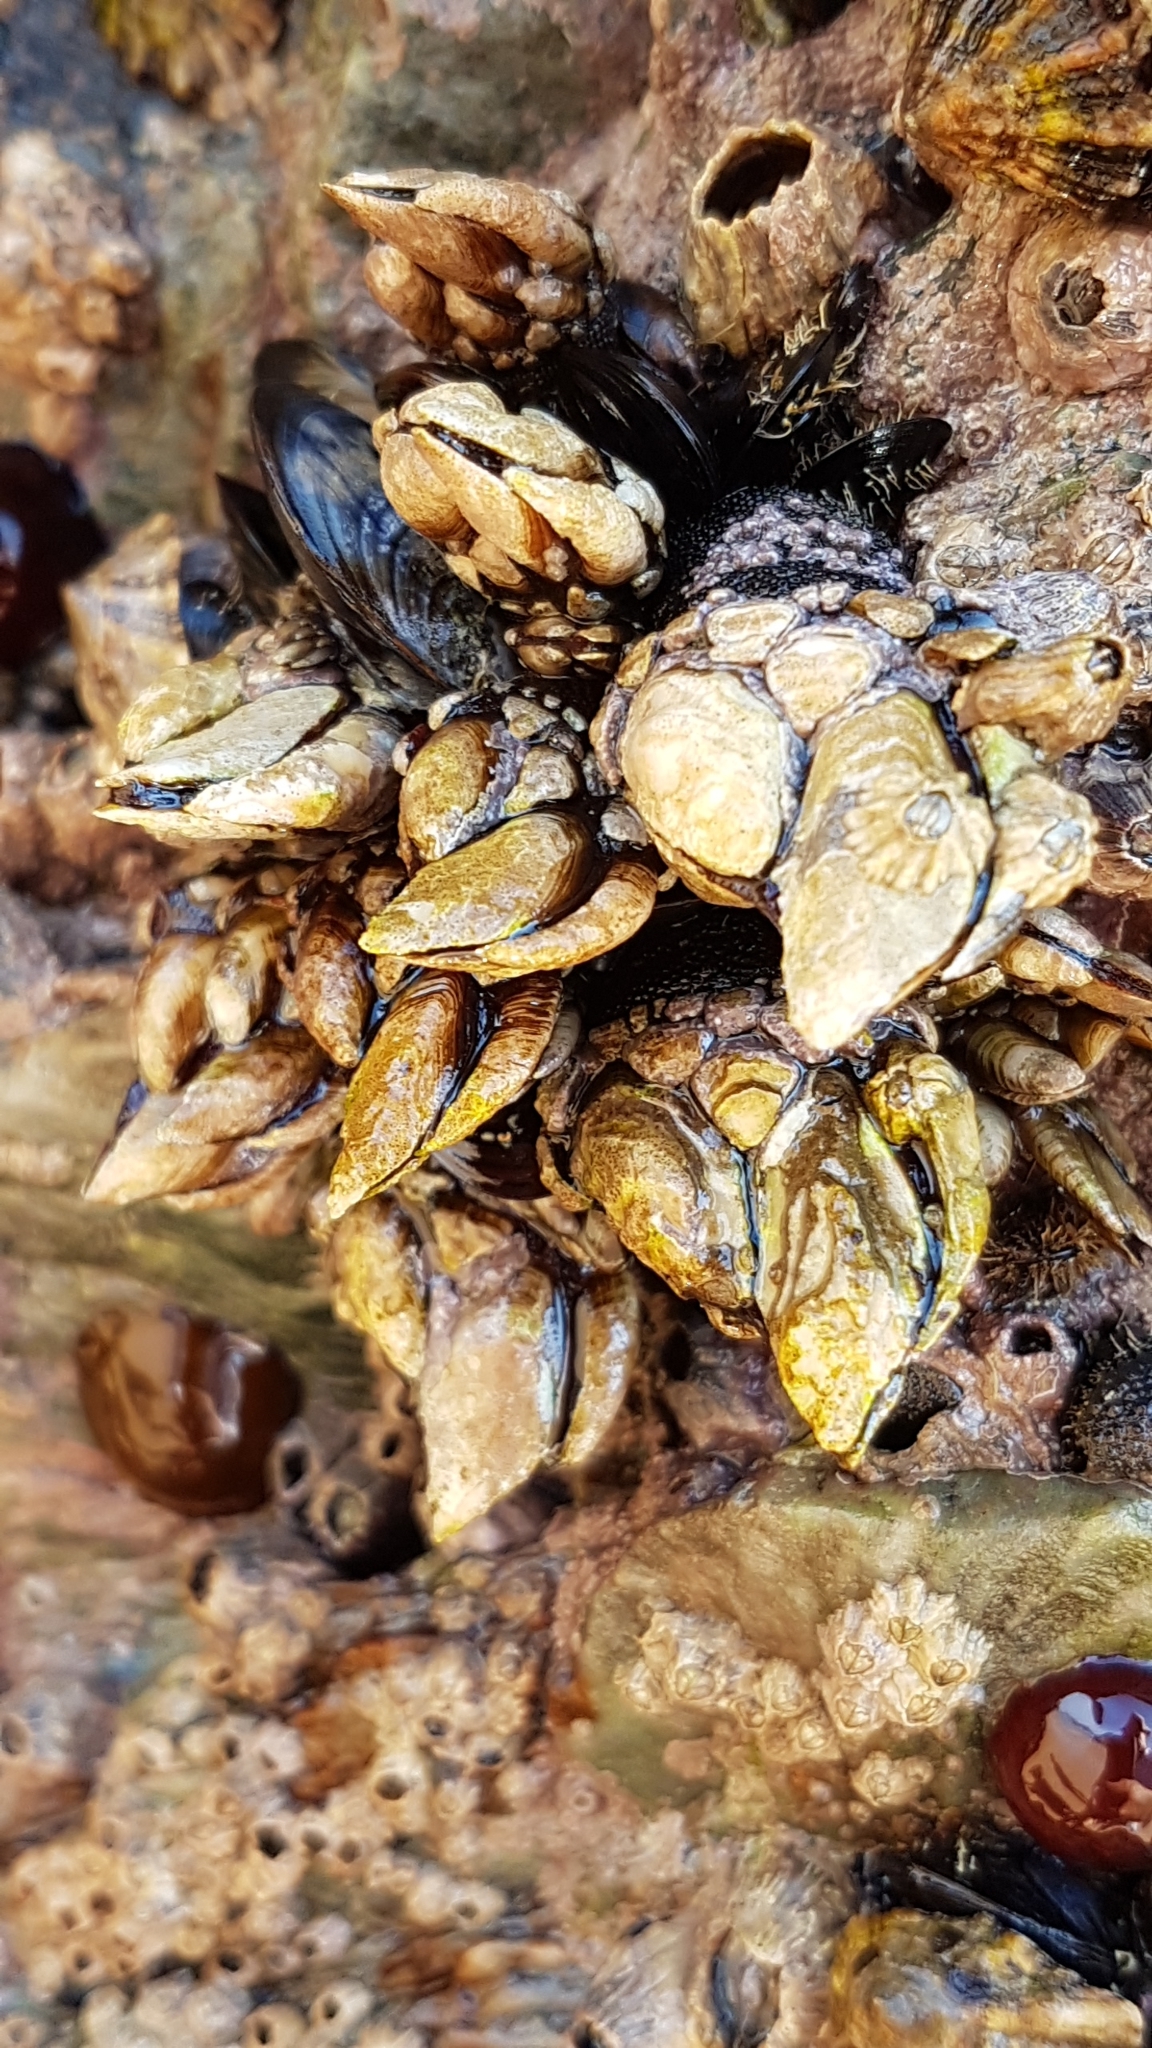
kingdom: Animalia
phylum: Arthropoda
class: Maxillopoda
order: Pedunculata
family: Pollicipedidae
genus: Pollicipes
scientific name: Pollicipes pollicipes
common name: Gooseneck barnacle
